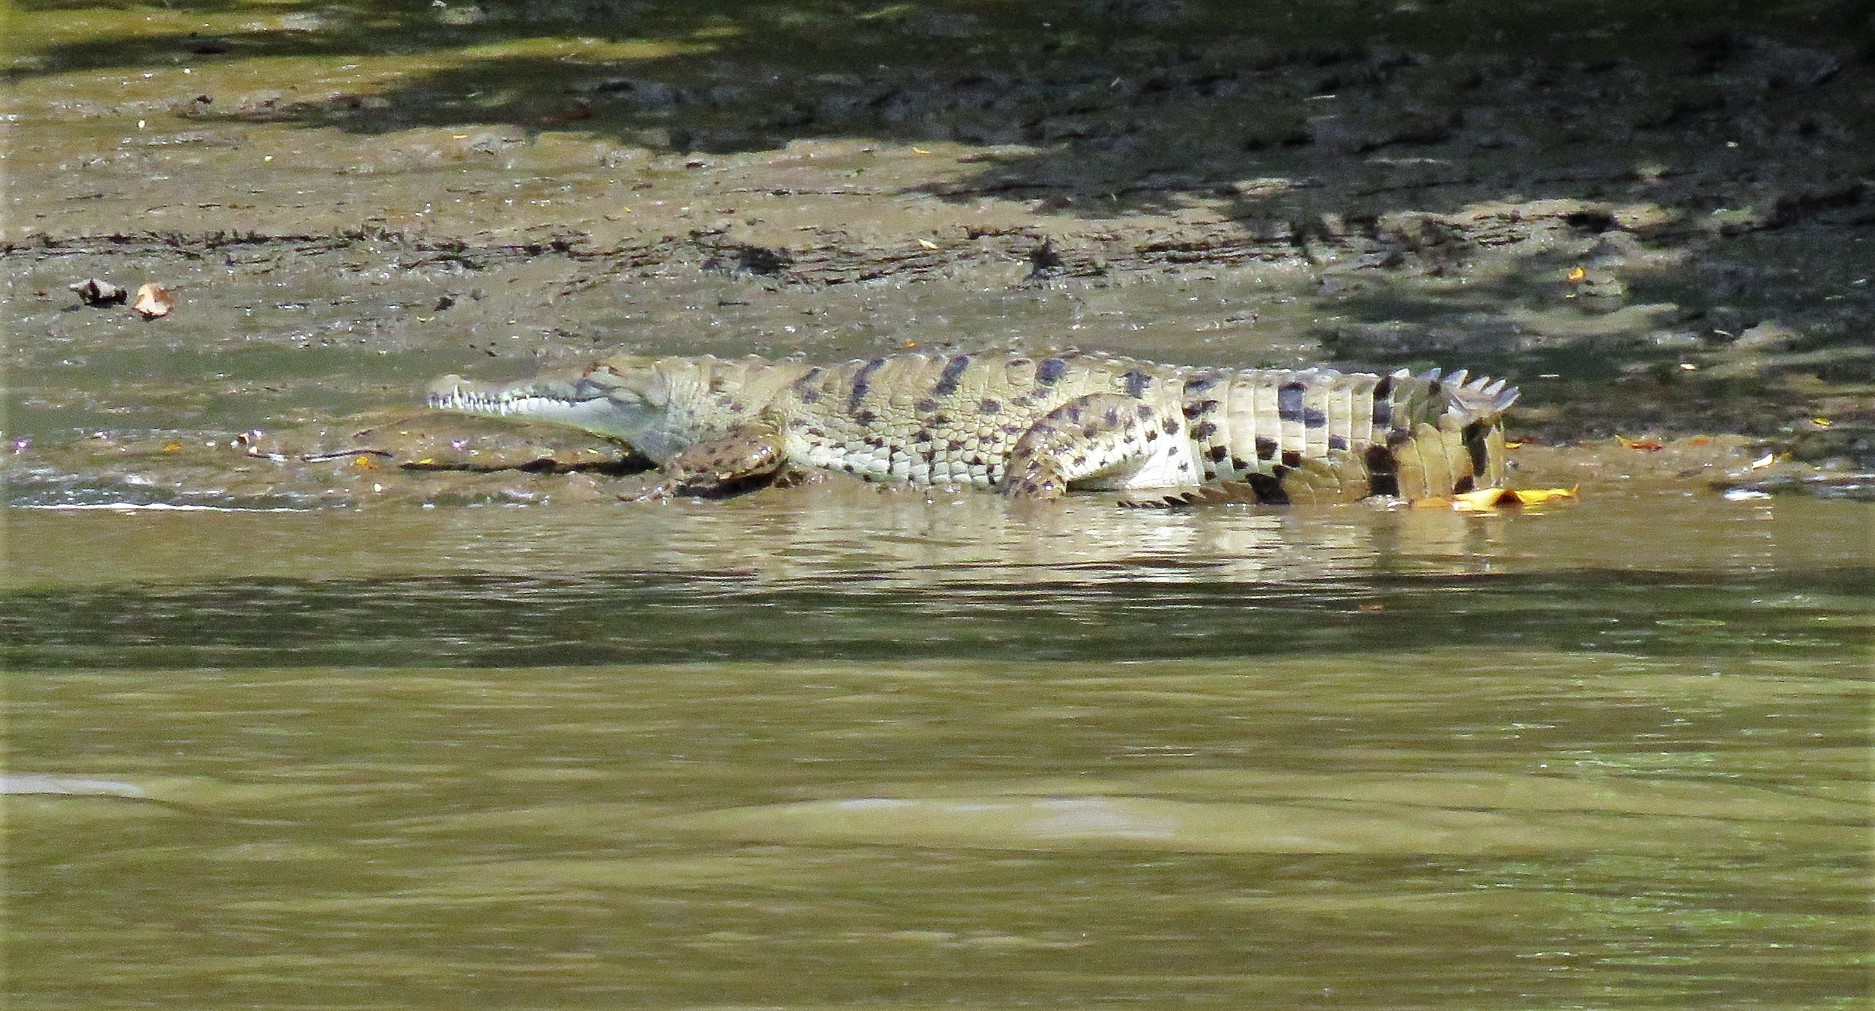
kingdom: Animalia
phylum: Chordata
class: Crocodylia
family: Crocodylidae
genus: Crocodylus
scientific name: Crocodylus acutus
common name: American crocodile
